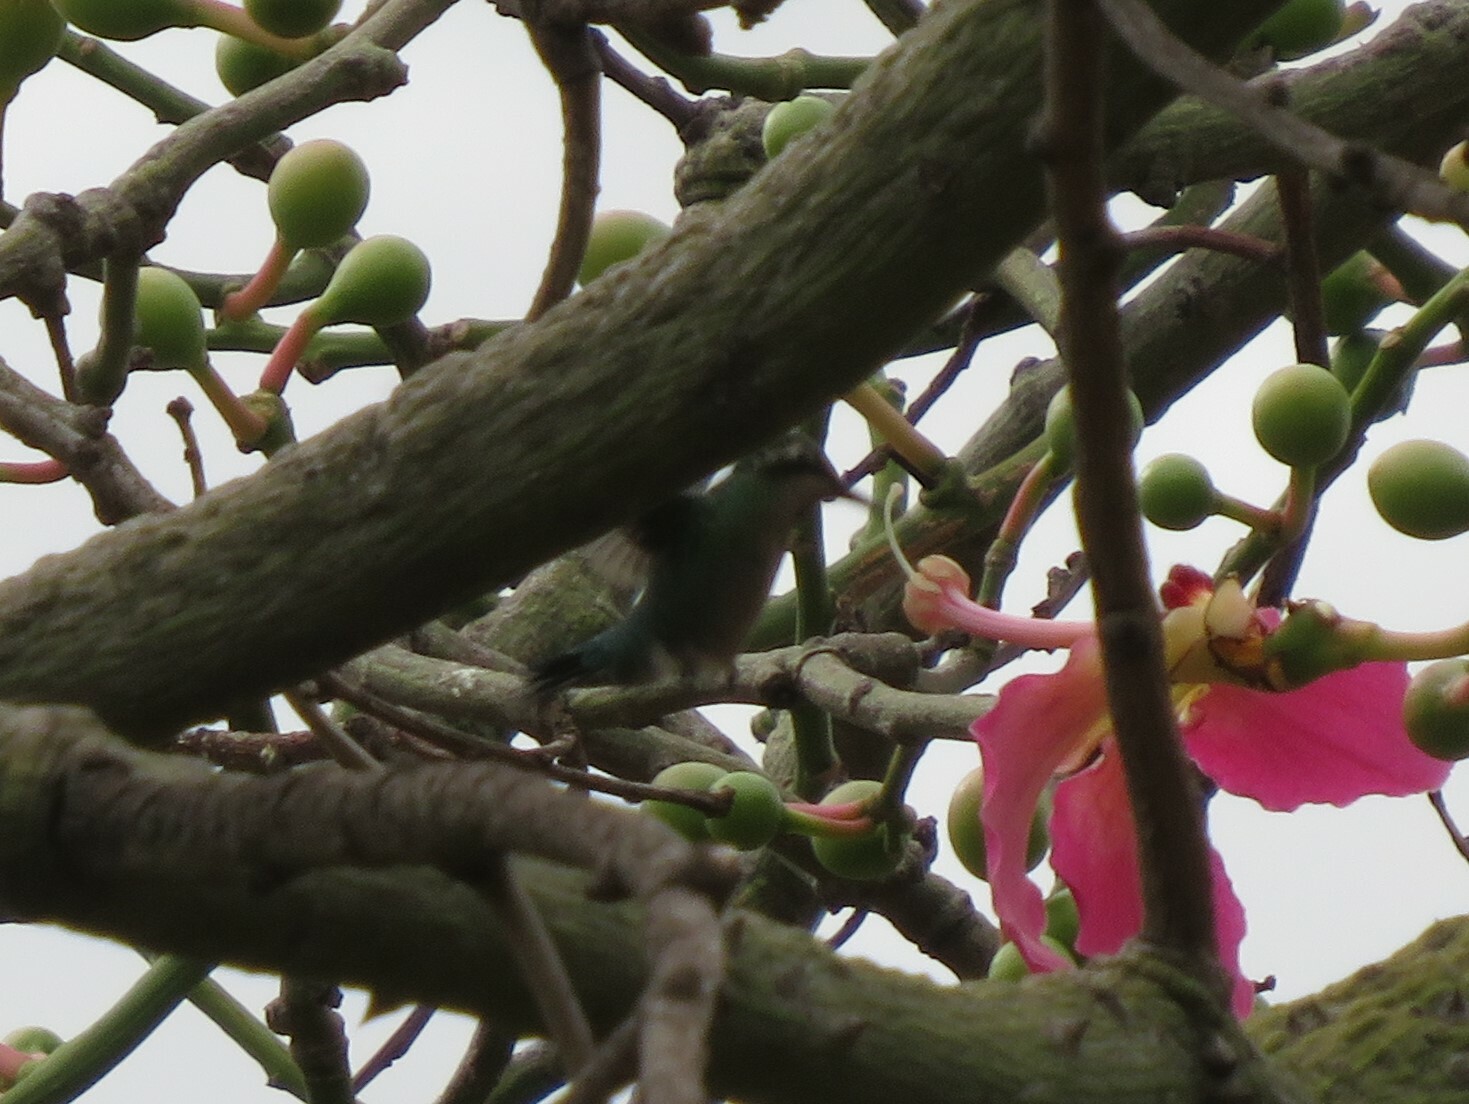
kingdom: Animalia
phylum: Chordata
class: Aves
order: Apodiformes
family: Trochilidae
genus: Chlorostilbon
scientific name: Chlorostilbon lucidus
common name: Glittering-bellied emerald
